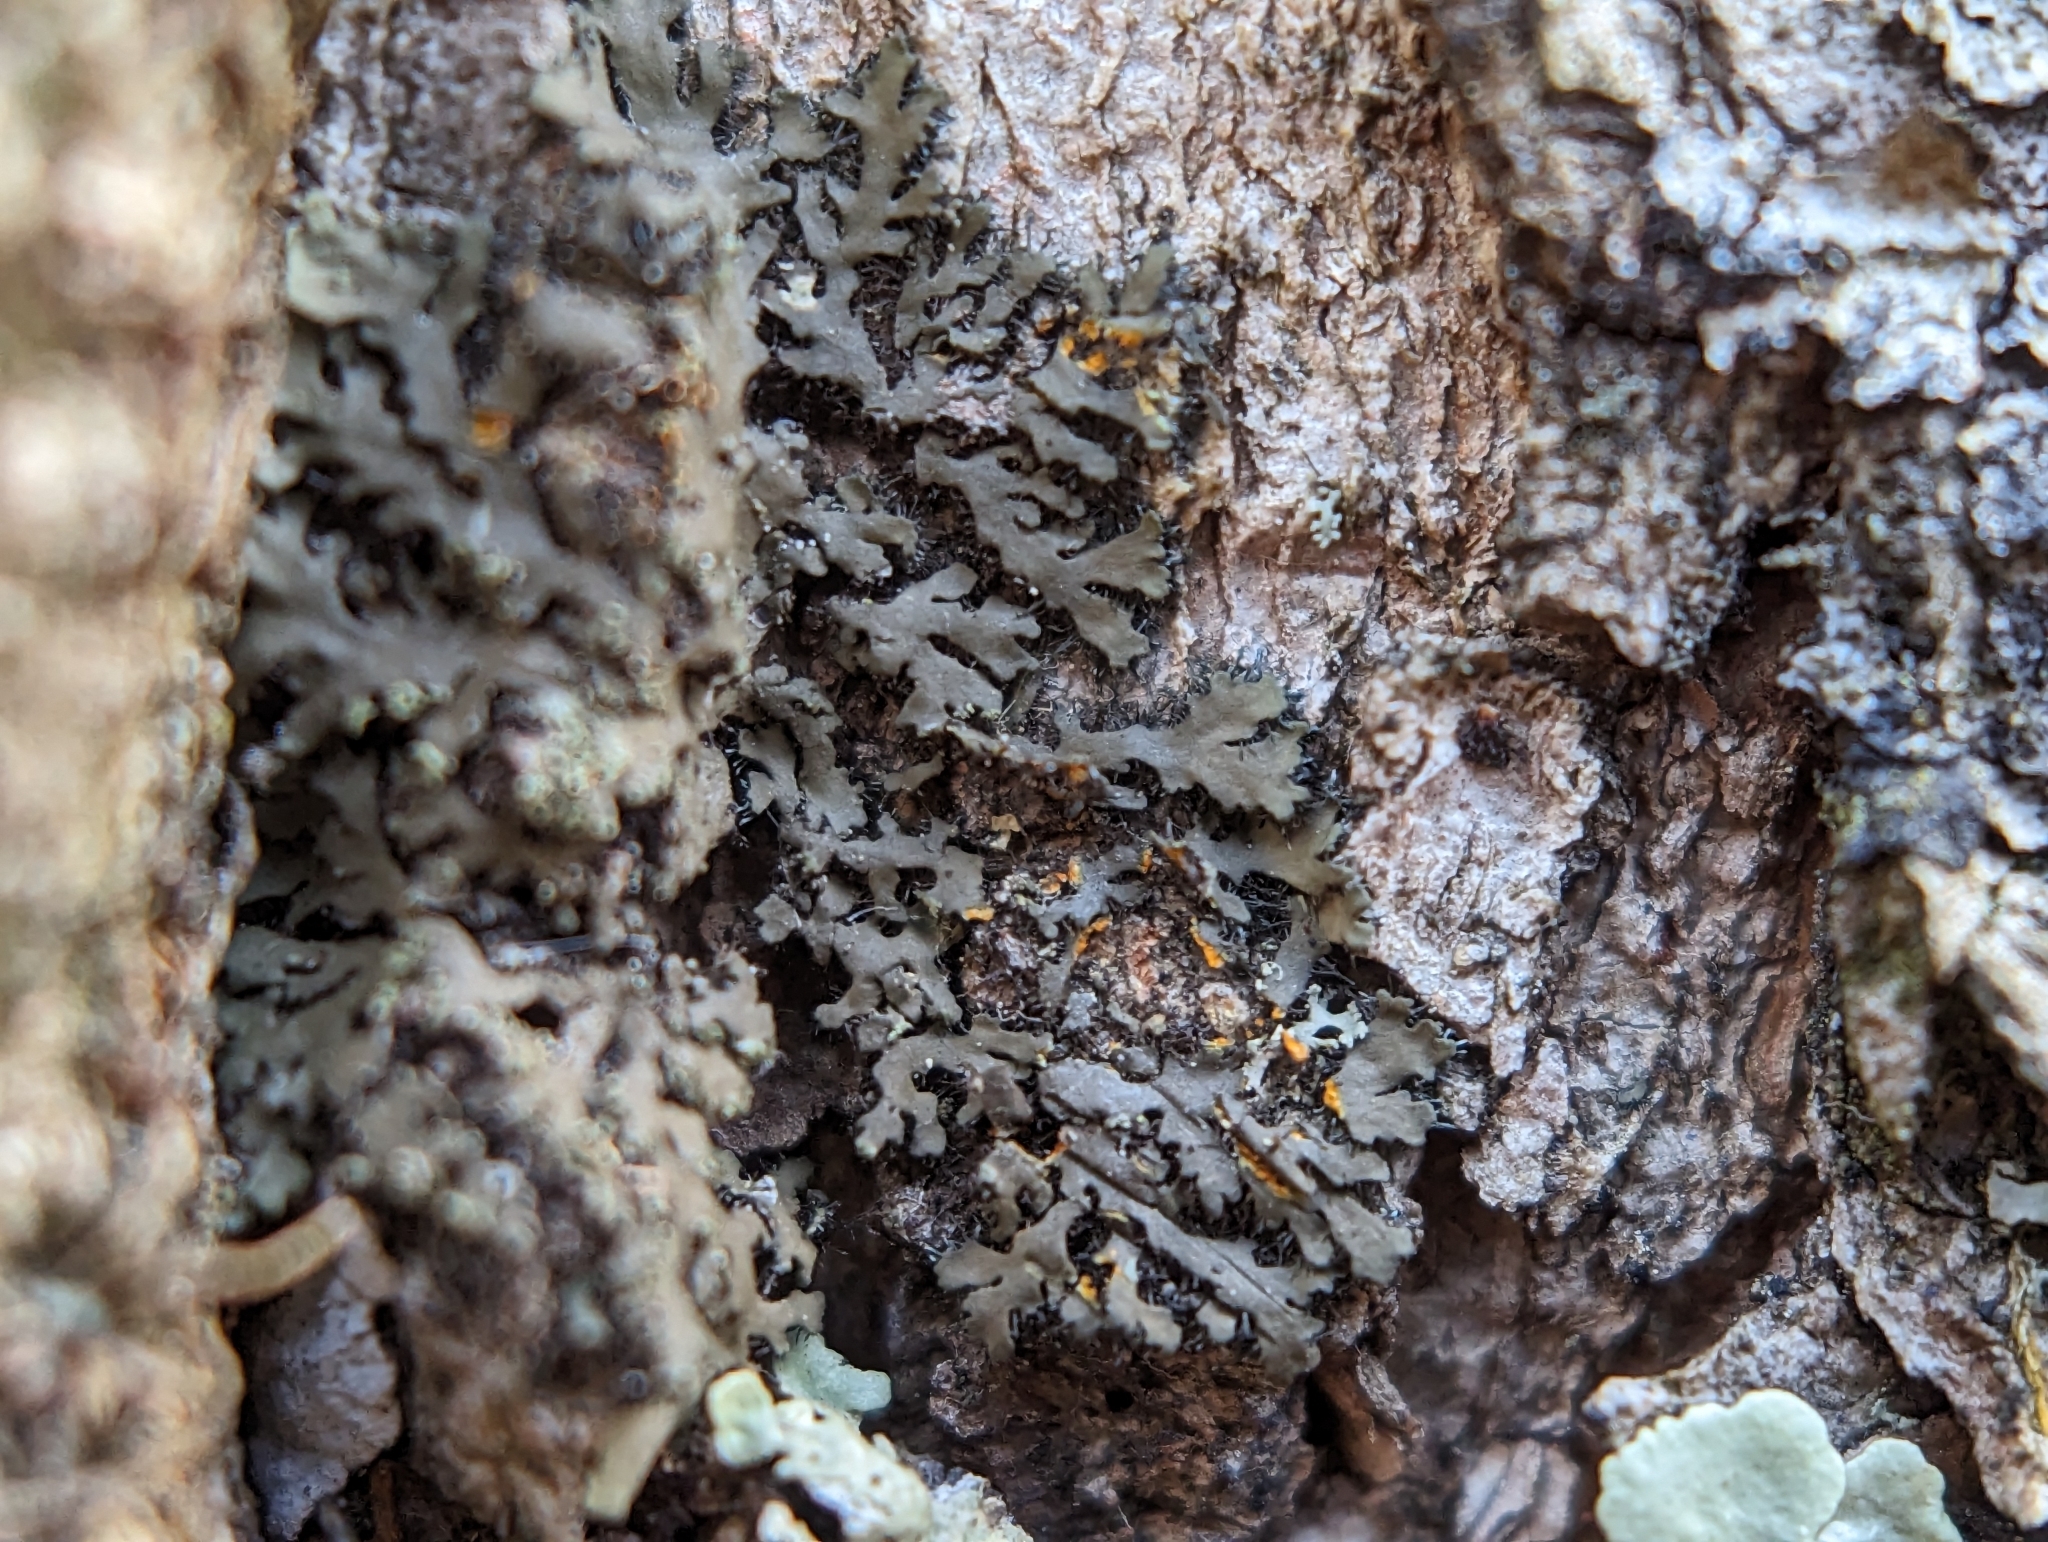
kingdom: Fungi
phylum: Ascomycota
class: Lecanoromycetes
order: Caliciales
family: Physciaceae
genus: Phaeophyscia
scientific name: Phaeophyscia rubropulchra
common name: Orange-cored shadow lichen
